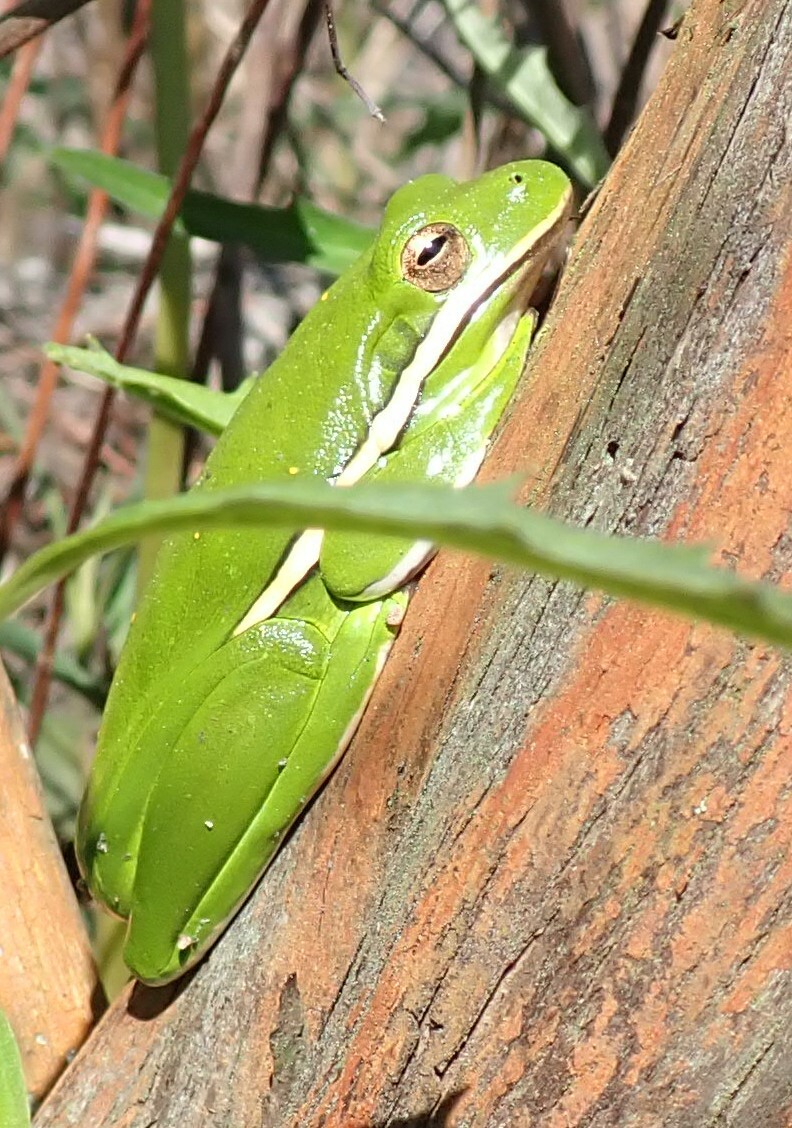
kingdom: Animalia
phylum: Chordata
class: Amphibia
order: Anura
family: Hylidae
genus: Dryophytes
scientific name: Dryophytes cinereus
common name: Green treefrog
